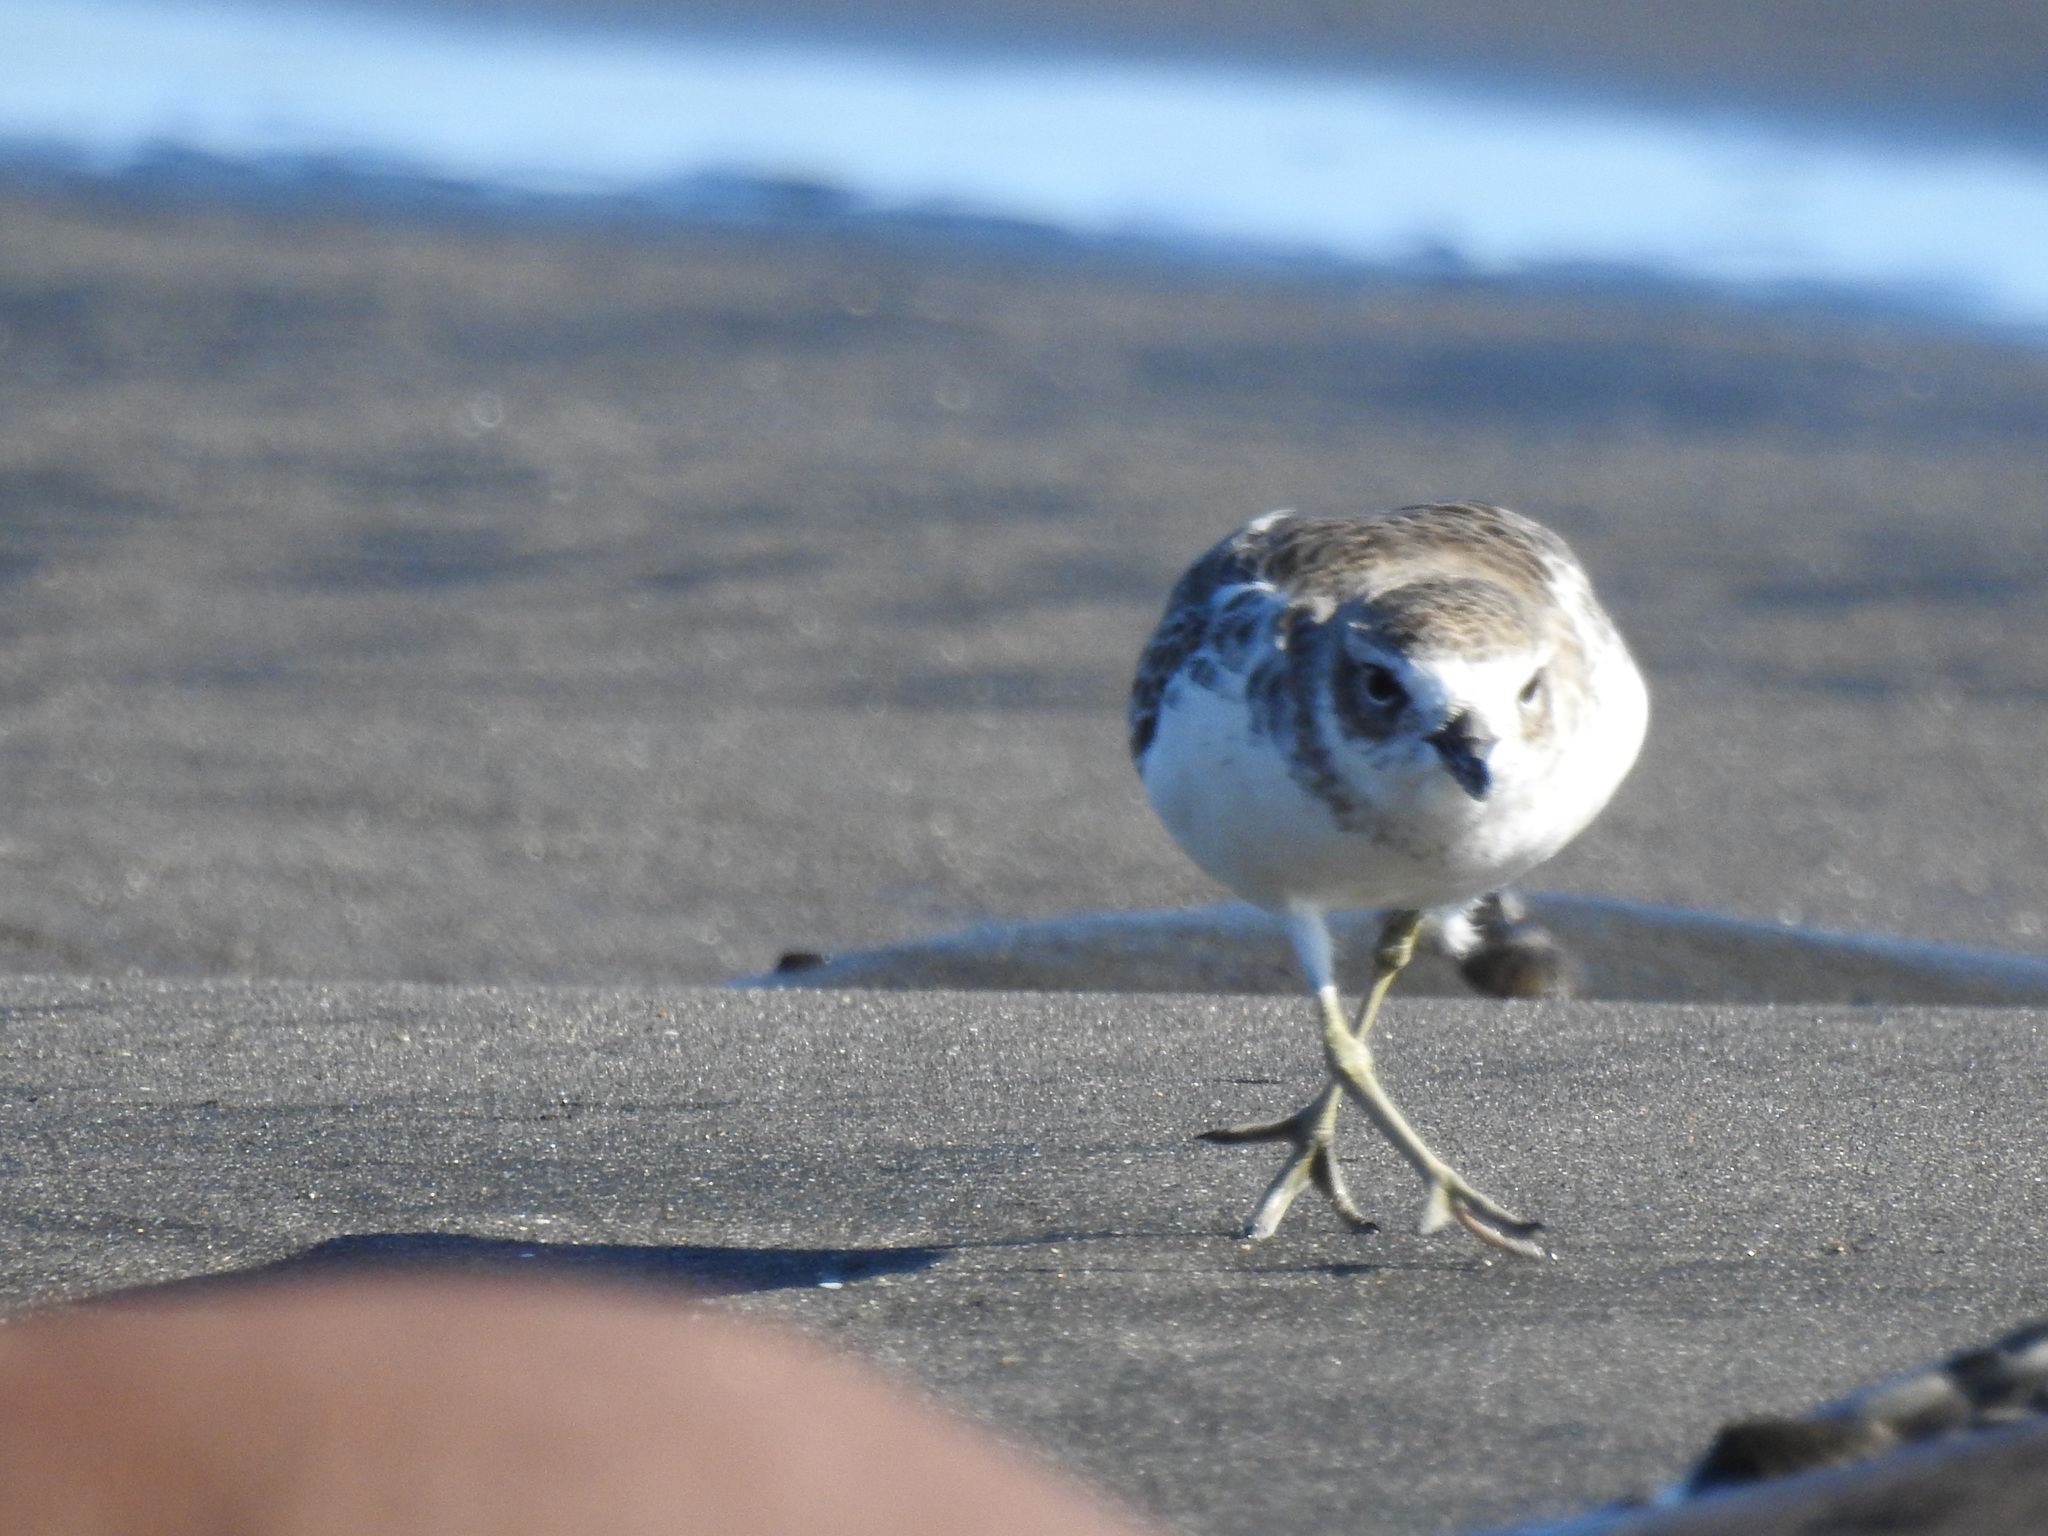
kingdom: Animalia
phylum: Chordata
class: Aves
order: Charadriiformes
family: Charadriidae
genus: Anarhynchus
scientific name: Anarhynchus
